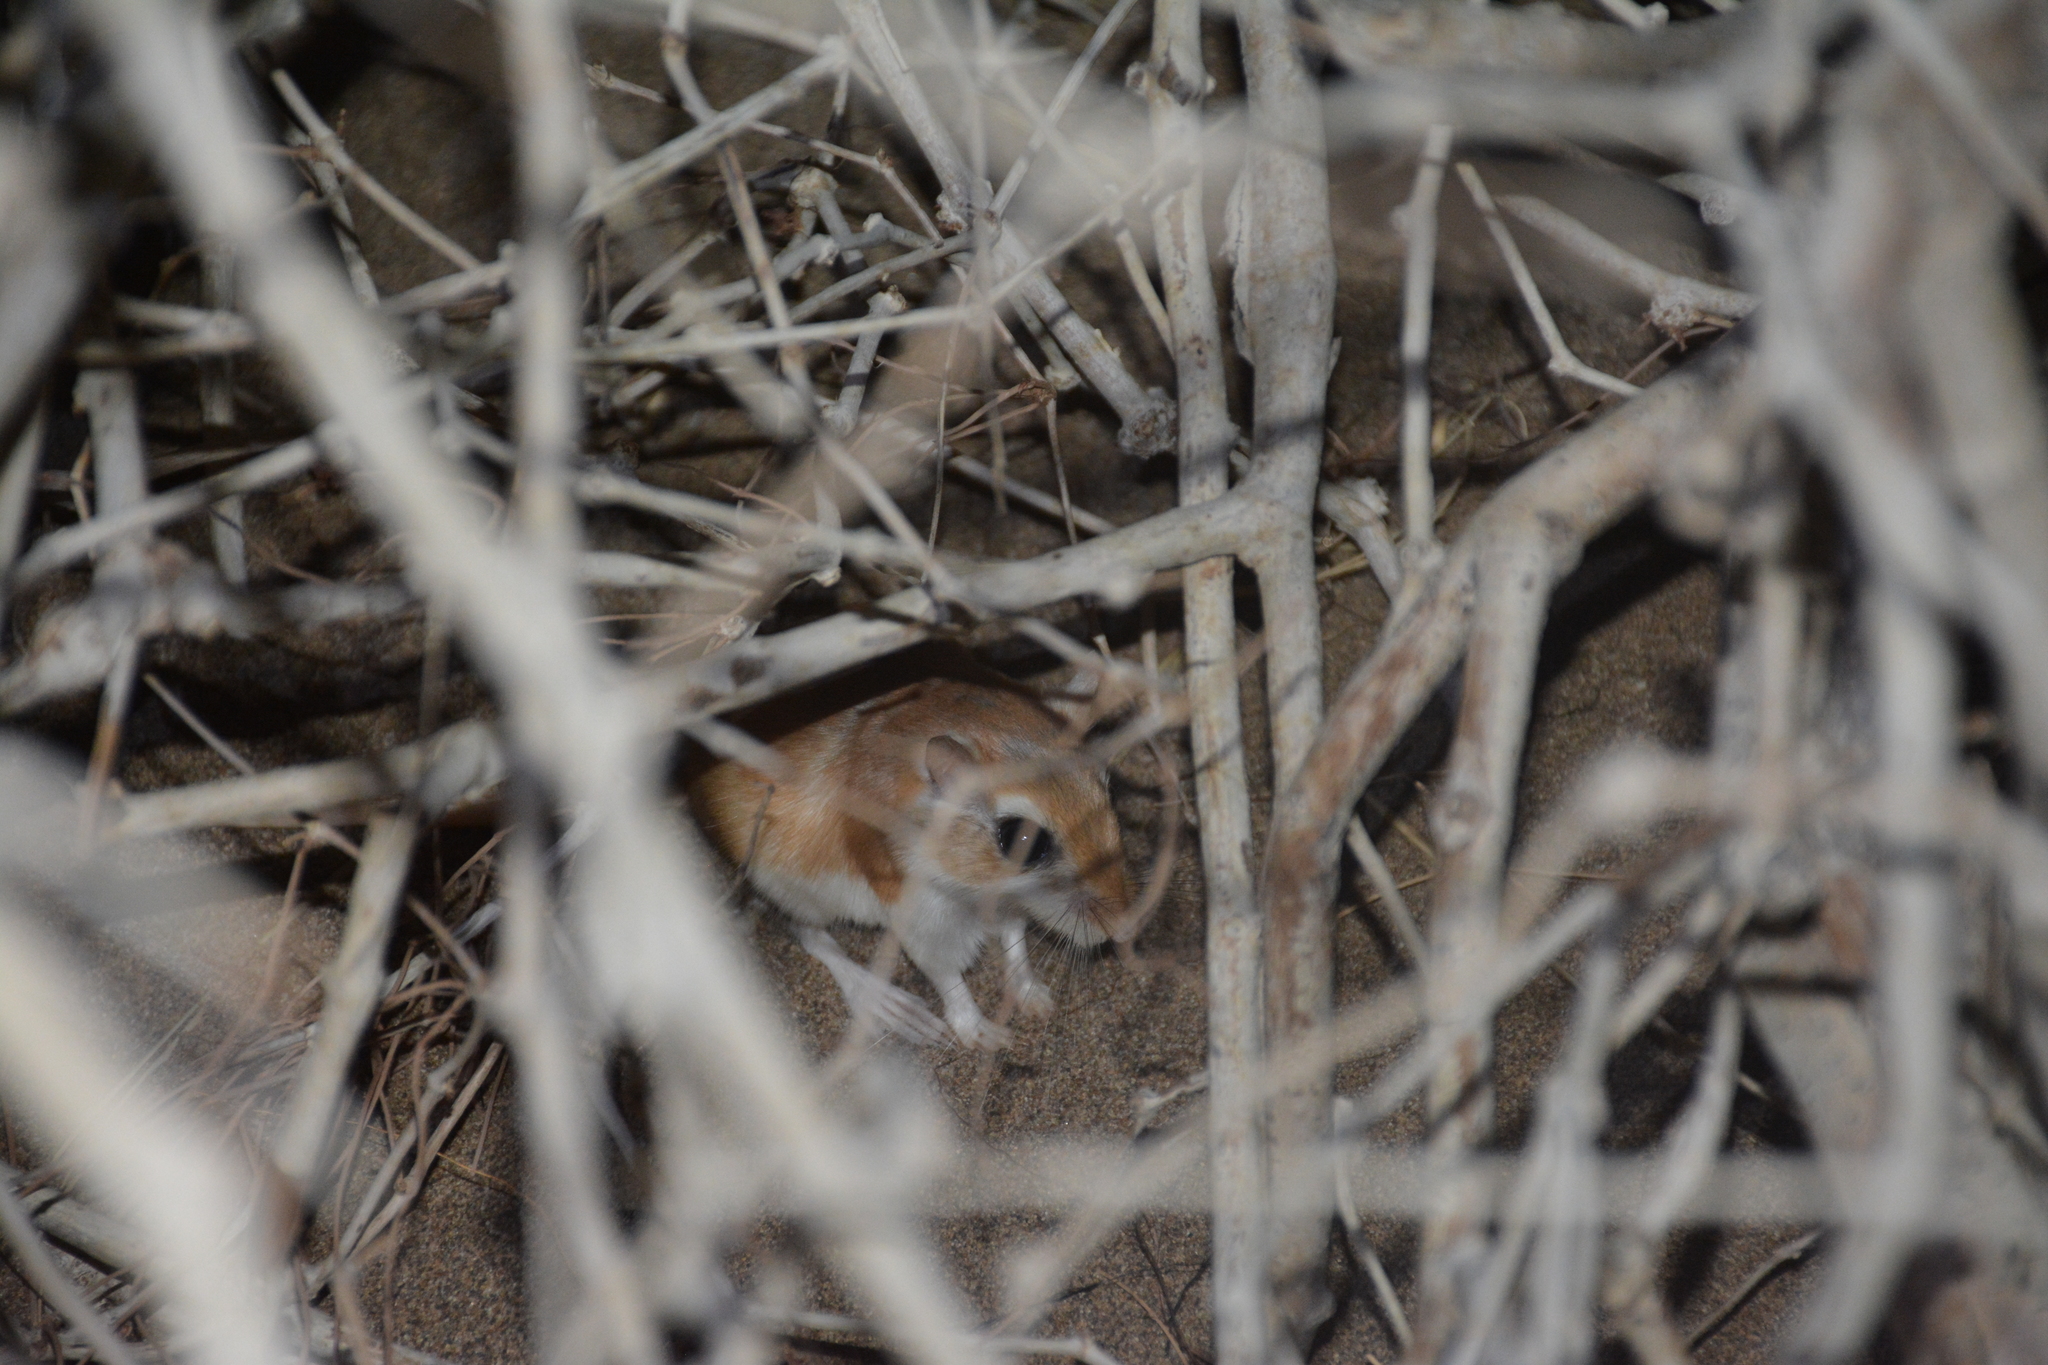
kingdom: Animalia
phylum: Chordata
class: Mammalia
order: Rodentia
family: Muridae
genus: Gerbillus
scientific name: Gerbillus cheesmani
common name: Cheesman's gerbil
